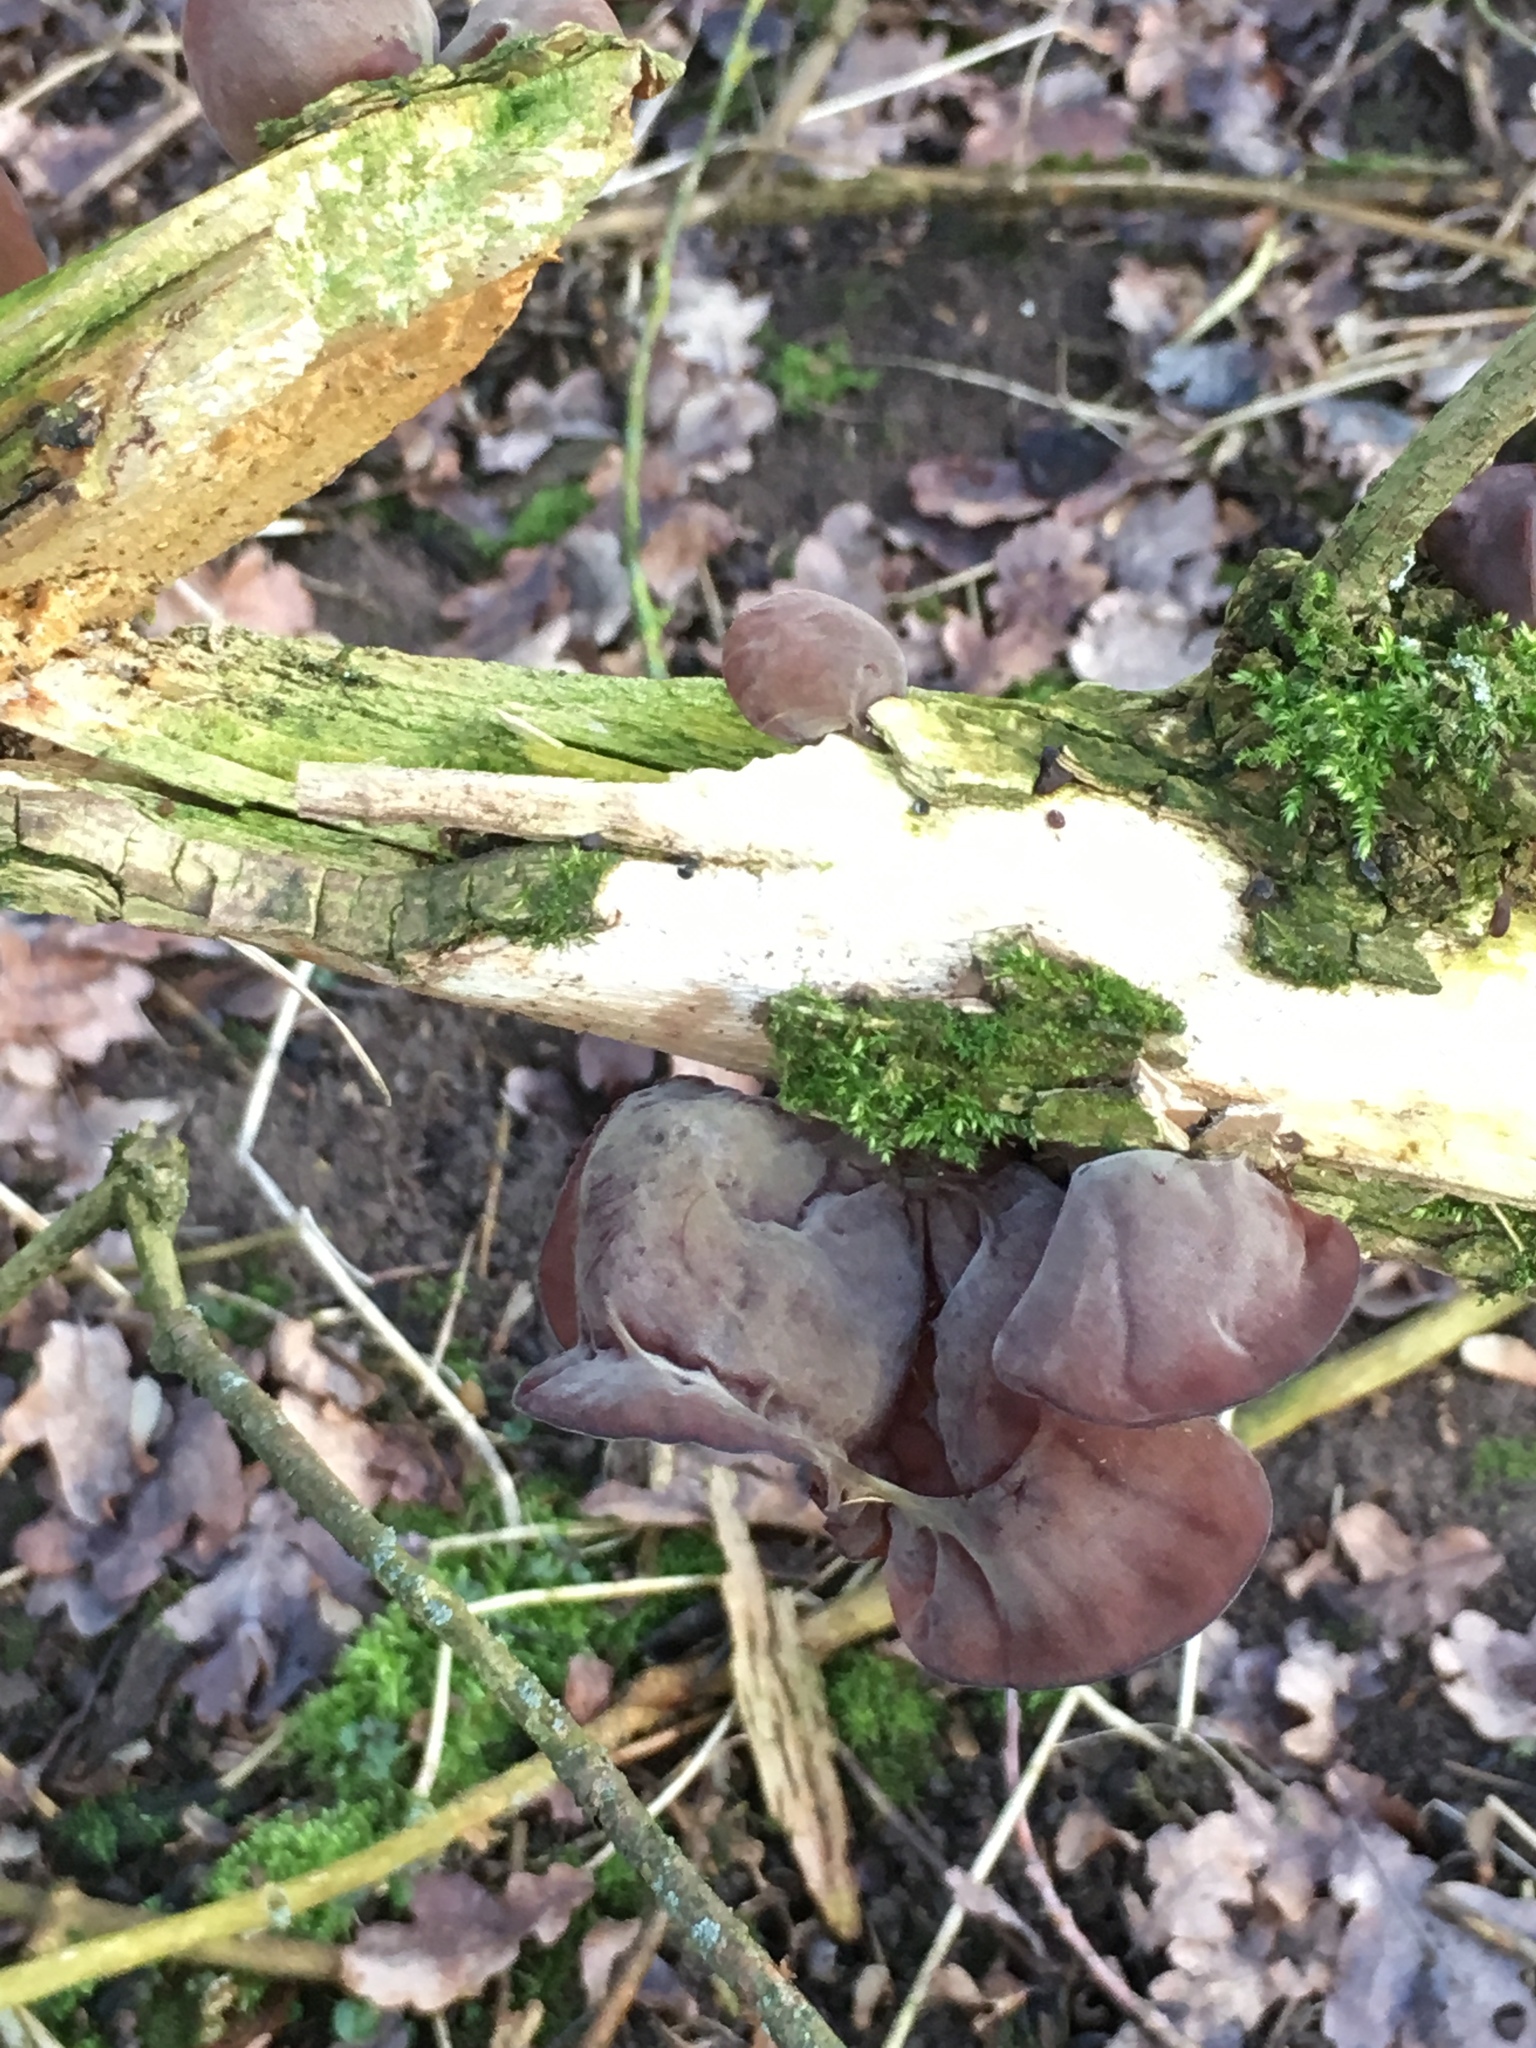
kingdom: Fungi
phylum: Basidiomycota
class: Agaricomycetes
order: Auriculariales
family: Auriculariaceae
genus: Auricularia
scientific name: Auricularia auricula-judae
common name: Jelly ear
